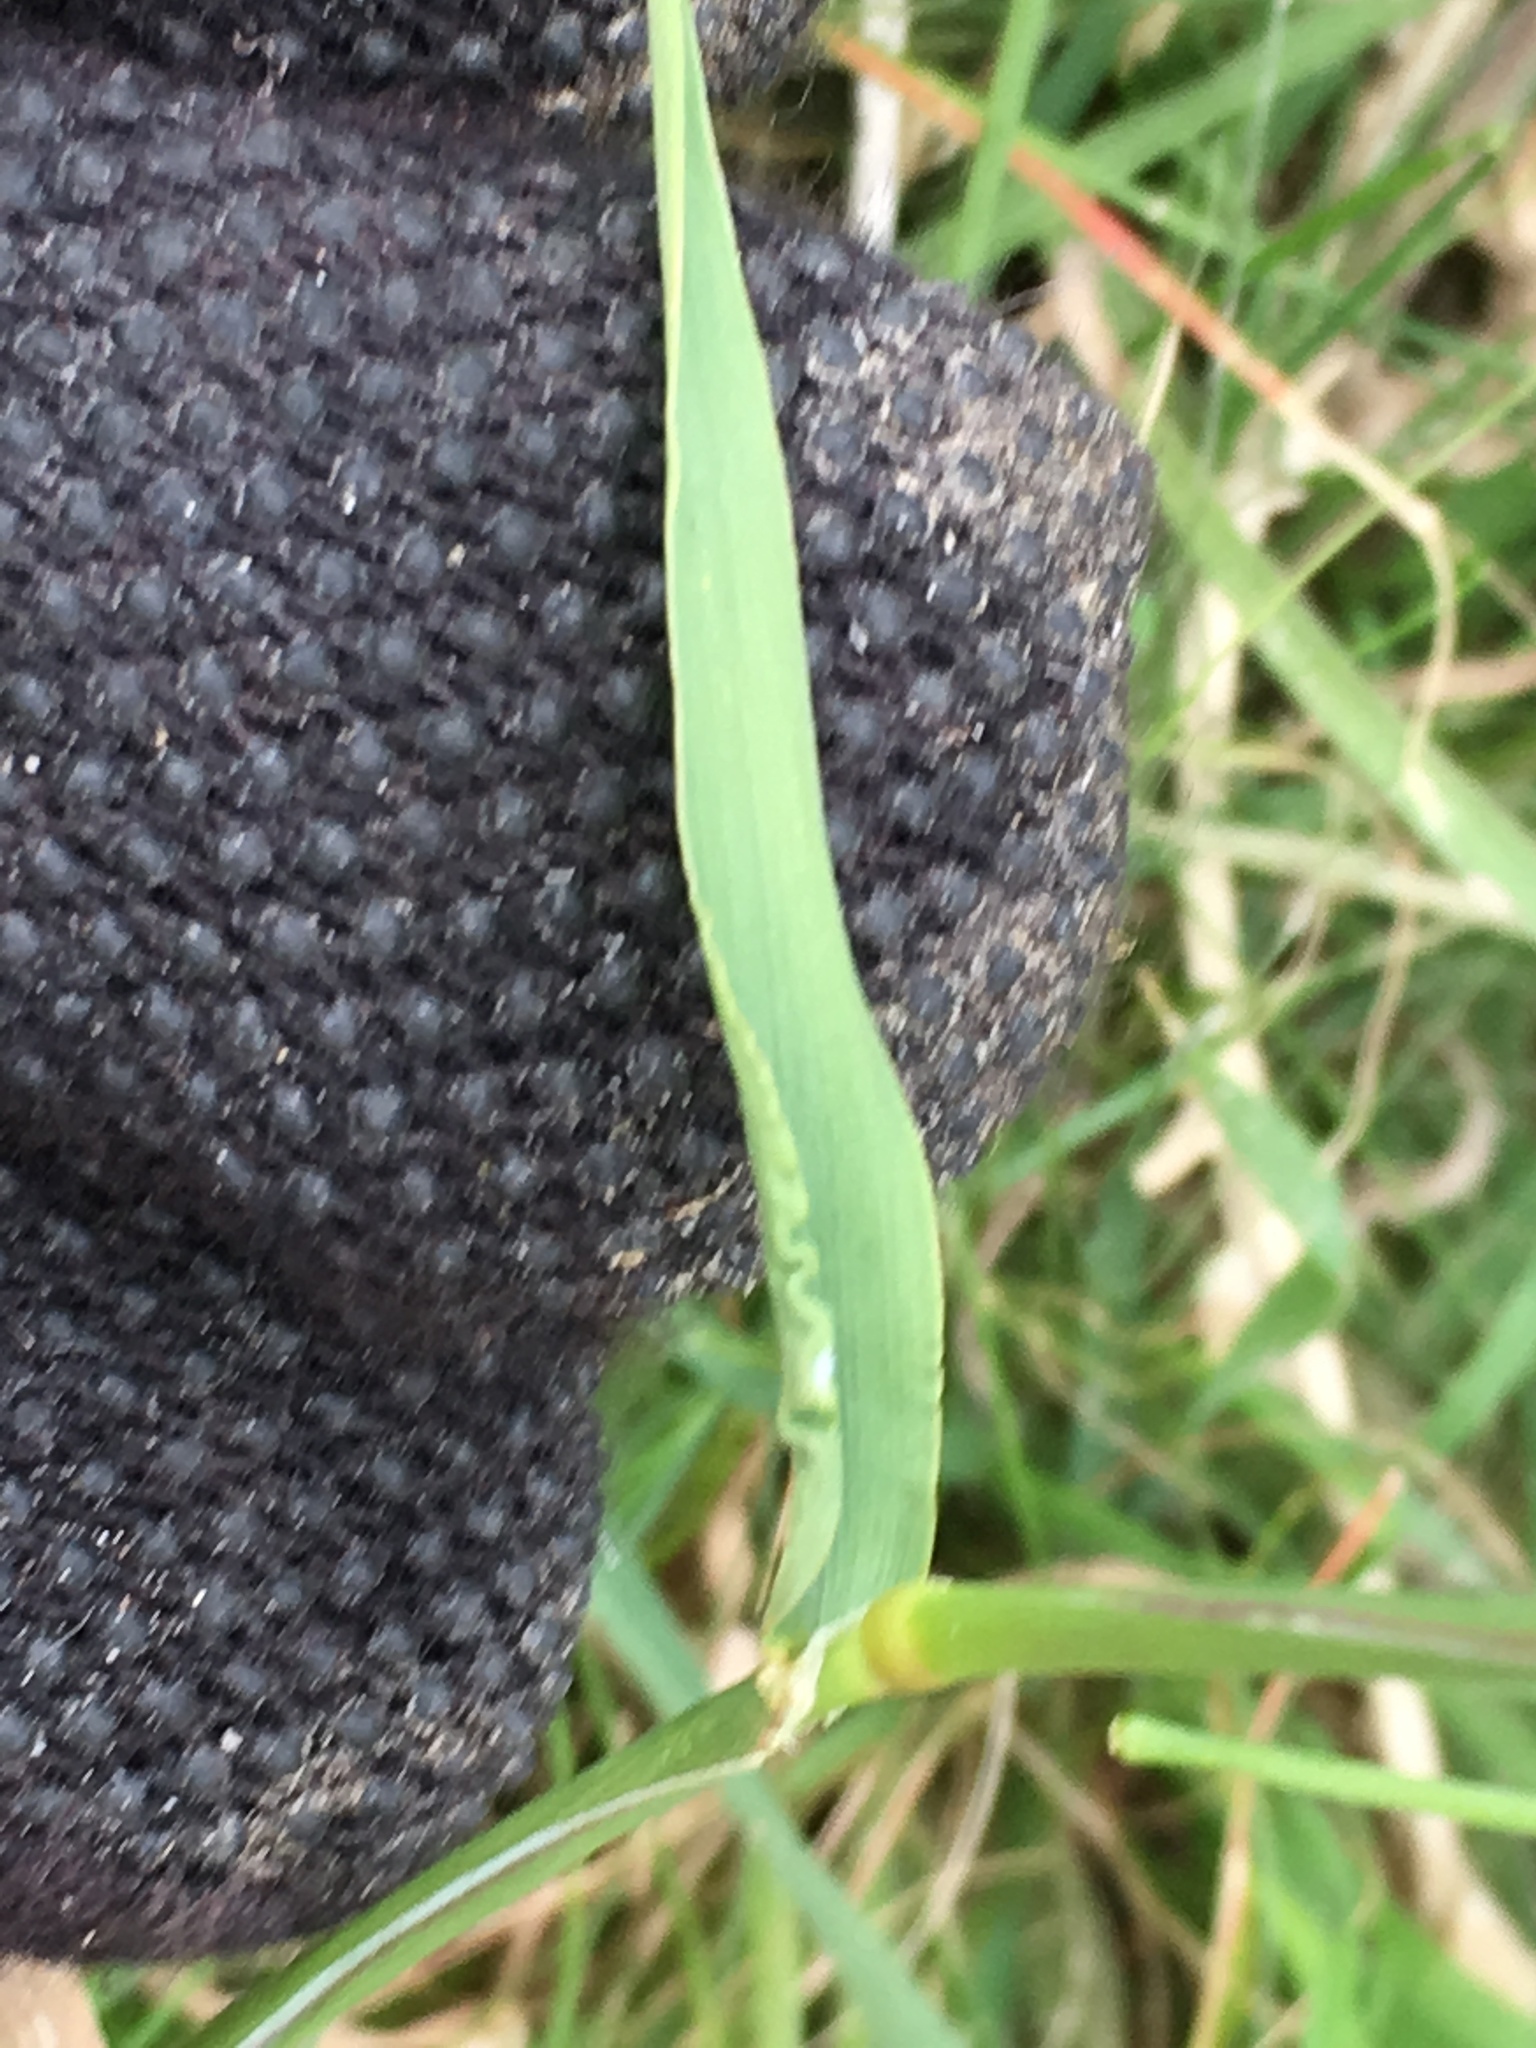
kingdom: Plantae
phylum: Tracheophyta
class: Liliopsida
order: Poales
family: Poaceae
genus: Polypogon
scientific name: Polypogon monspeliensis
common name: Annual rabbitsfoot grass
